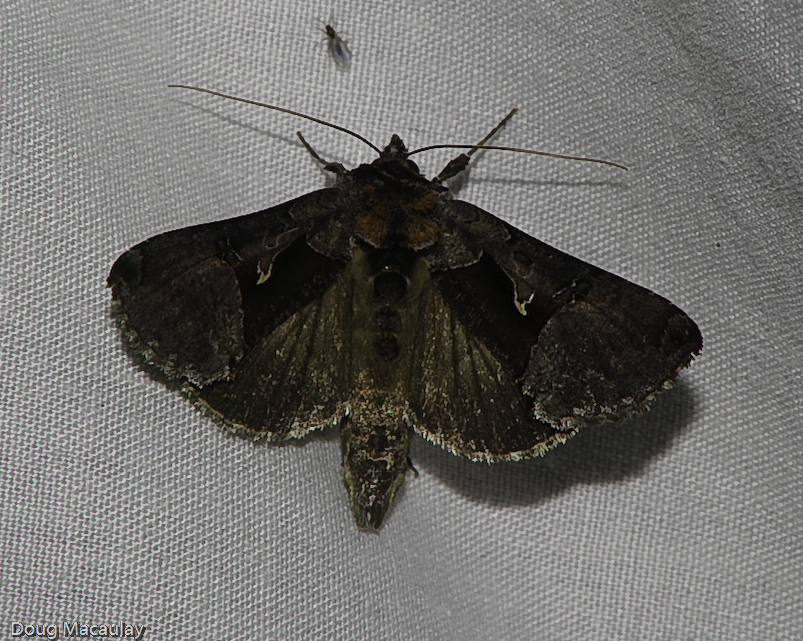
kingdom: Animalia
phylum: Arthropoda
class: Insecta
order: Lepidoptera
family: Noctuidae
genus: Autographa
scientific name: Autographa ampla
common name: Large looper moth
